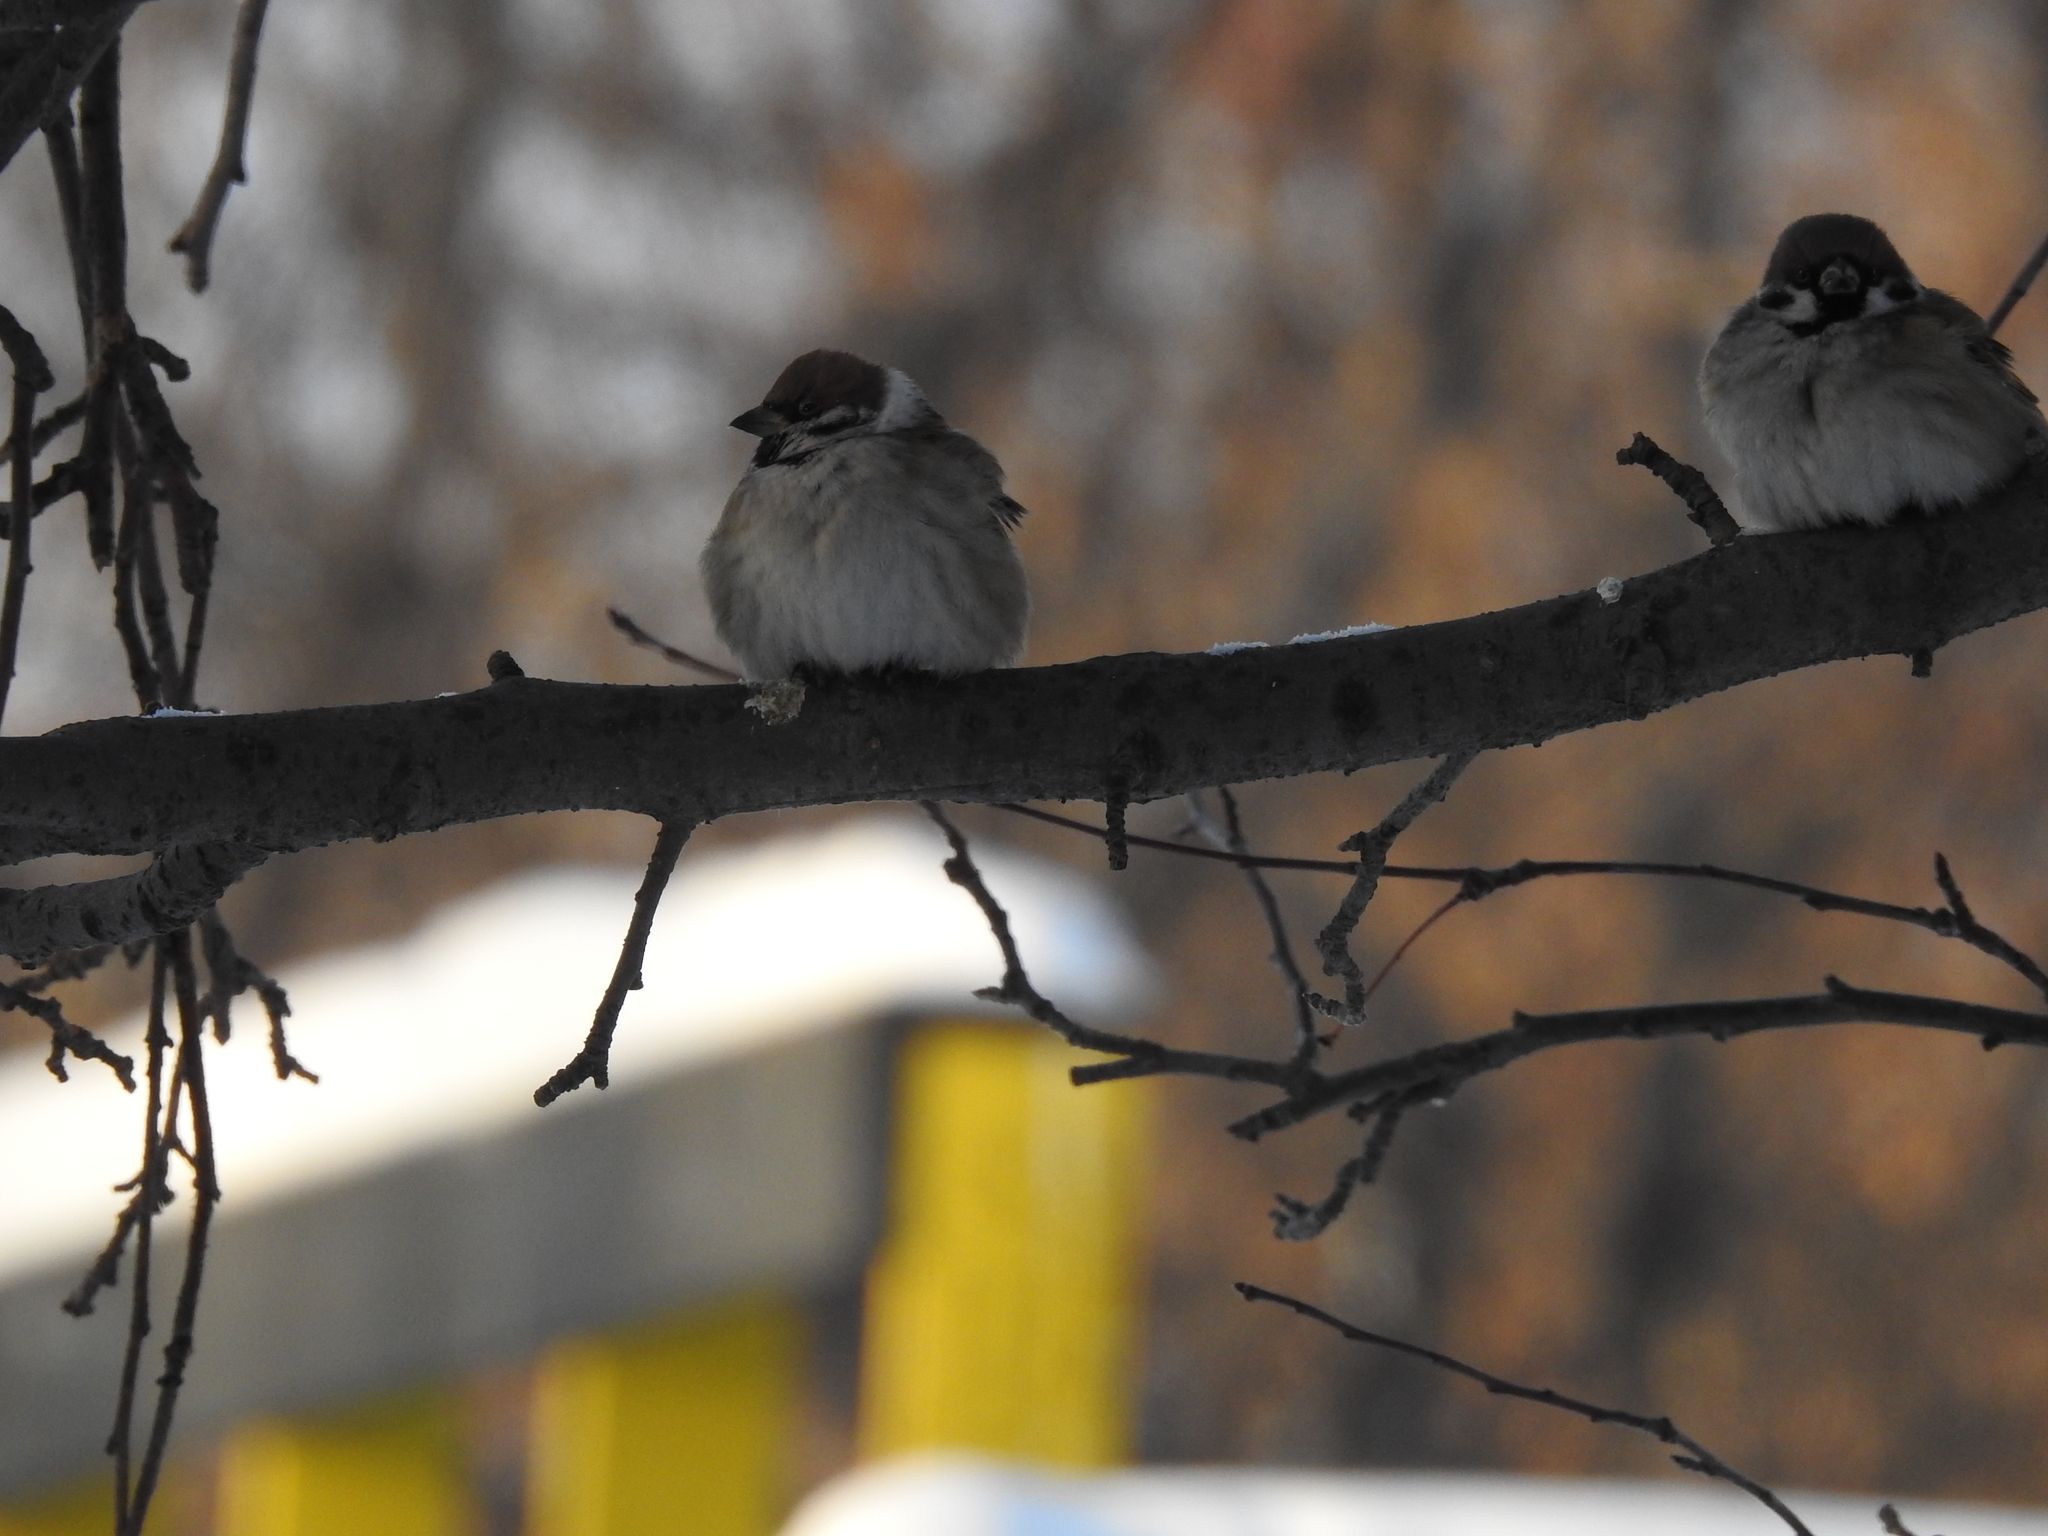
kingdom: Animalia
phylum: Chordata
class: Aves
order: Passeriformes
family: Passeridae
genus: Passer
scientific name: Passer montanus
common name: Eurasian tree sparrow
